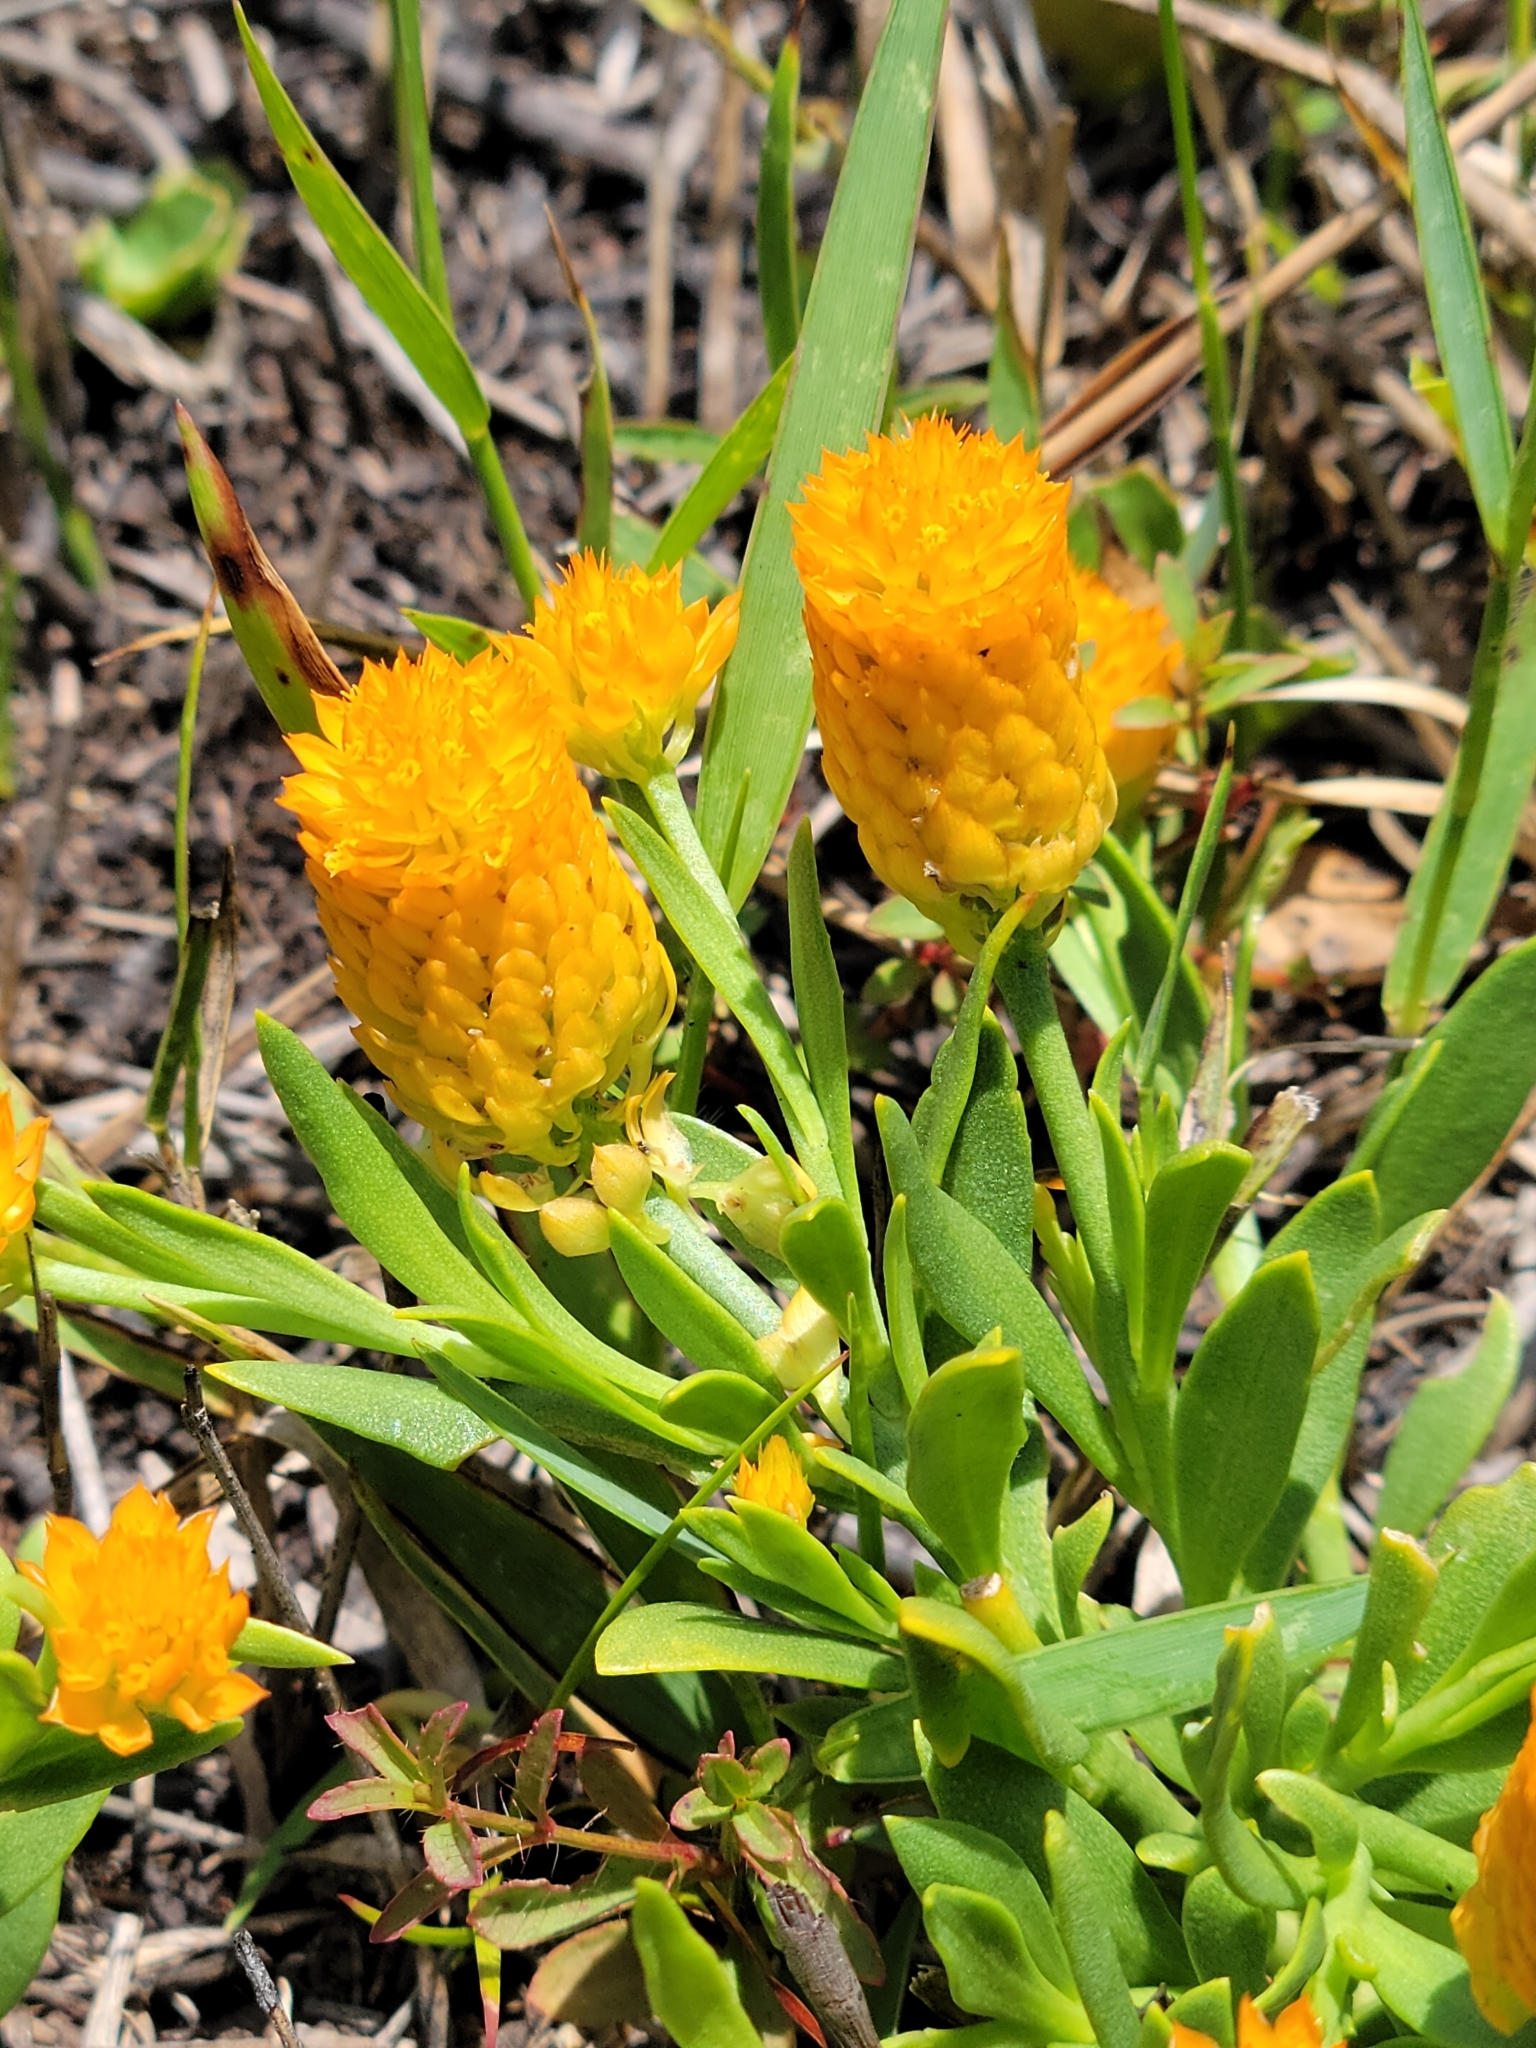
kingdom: Plantae
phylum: Tracheophyta
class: Magnoliopsida
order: Fabales
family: Polygalaceae
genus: Polygala
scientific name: Polygala lutea
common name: Orange milkwort
